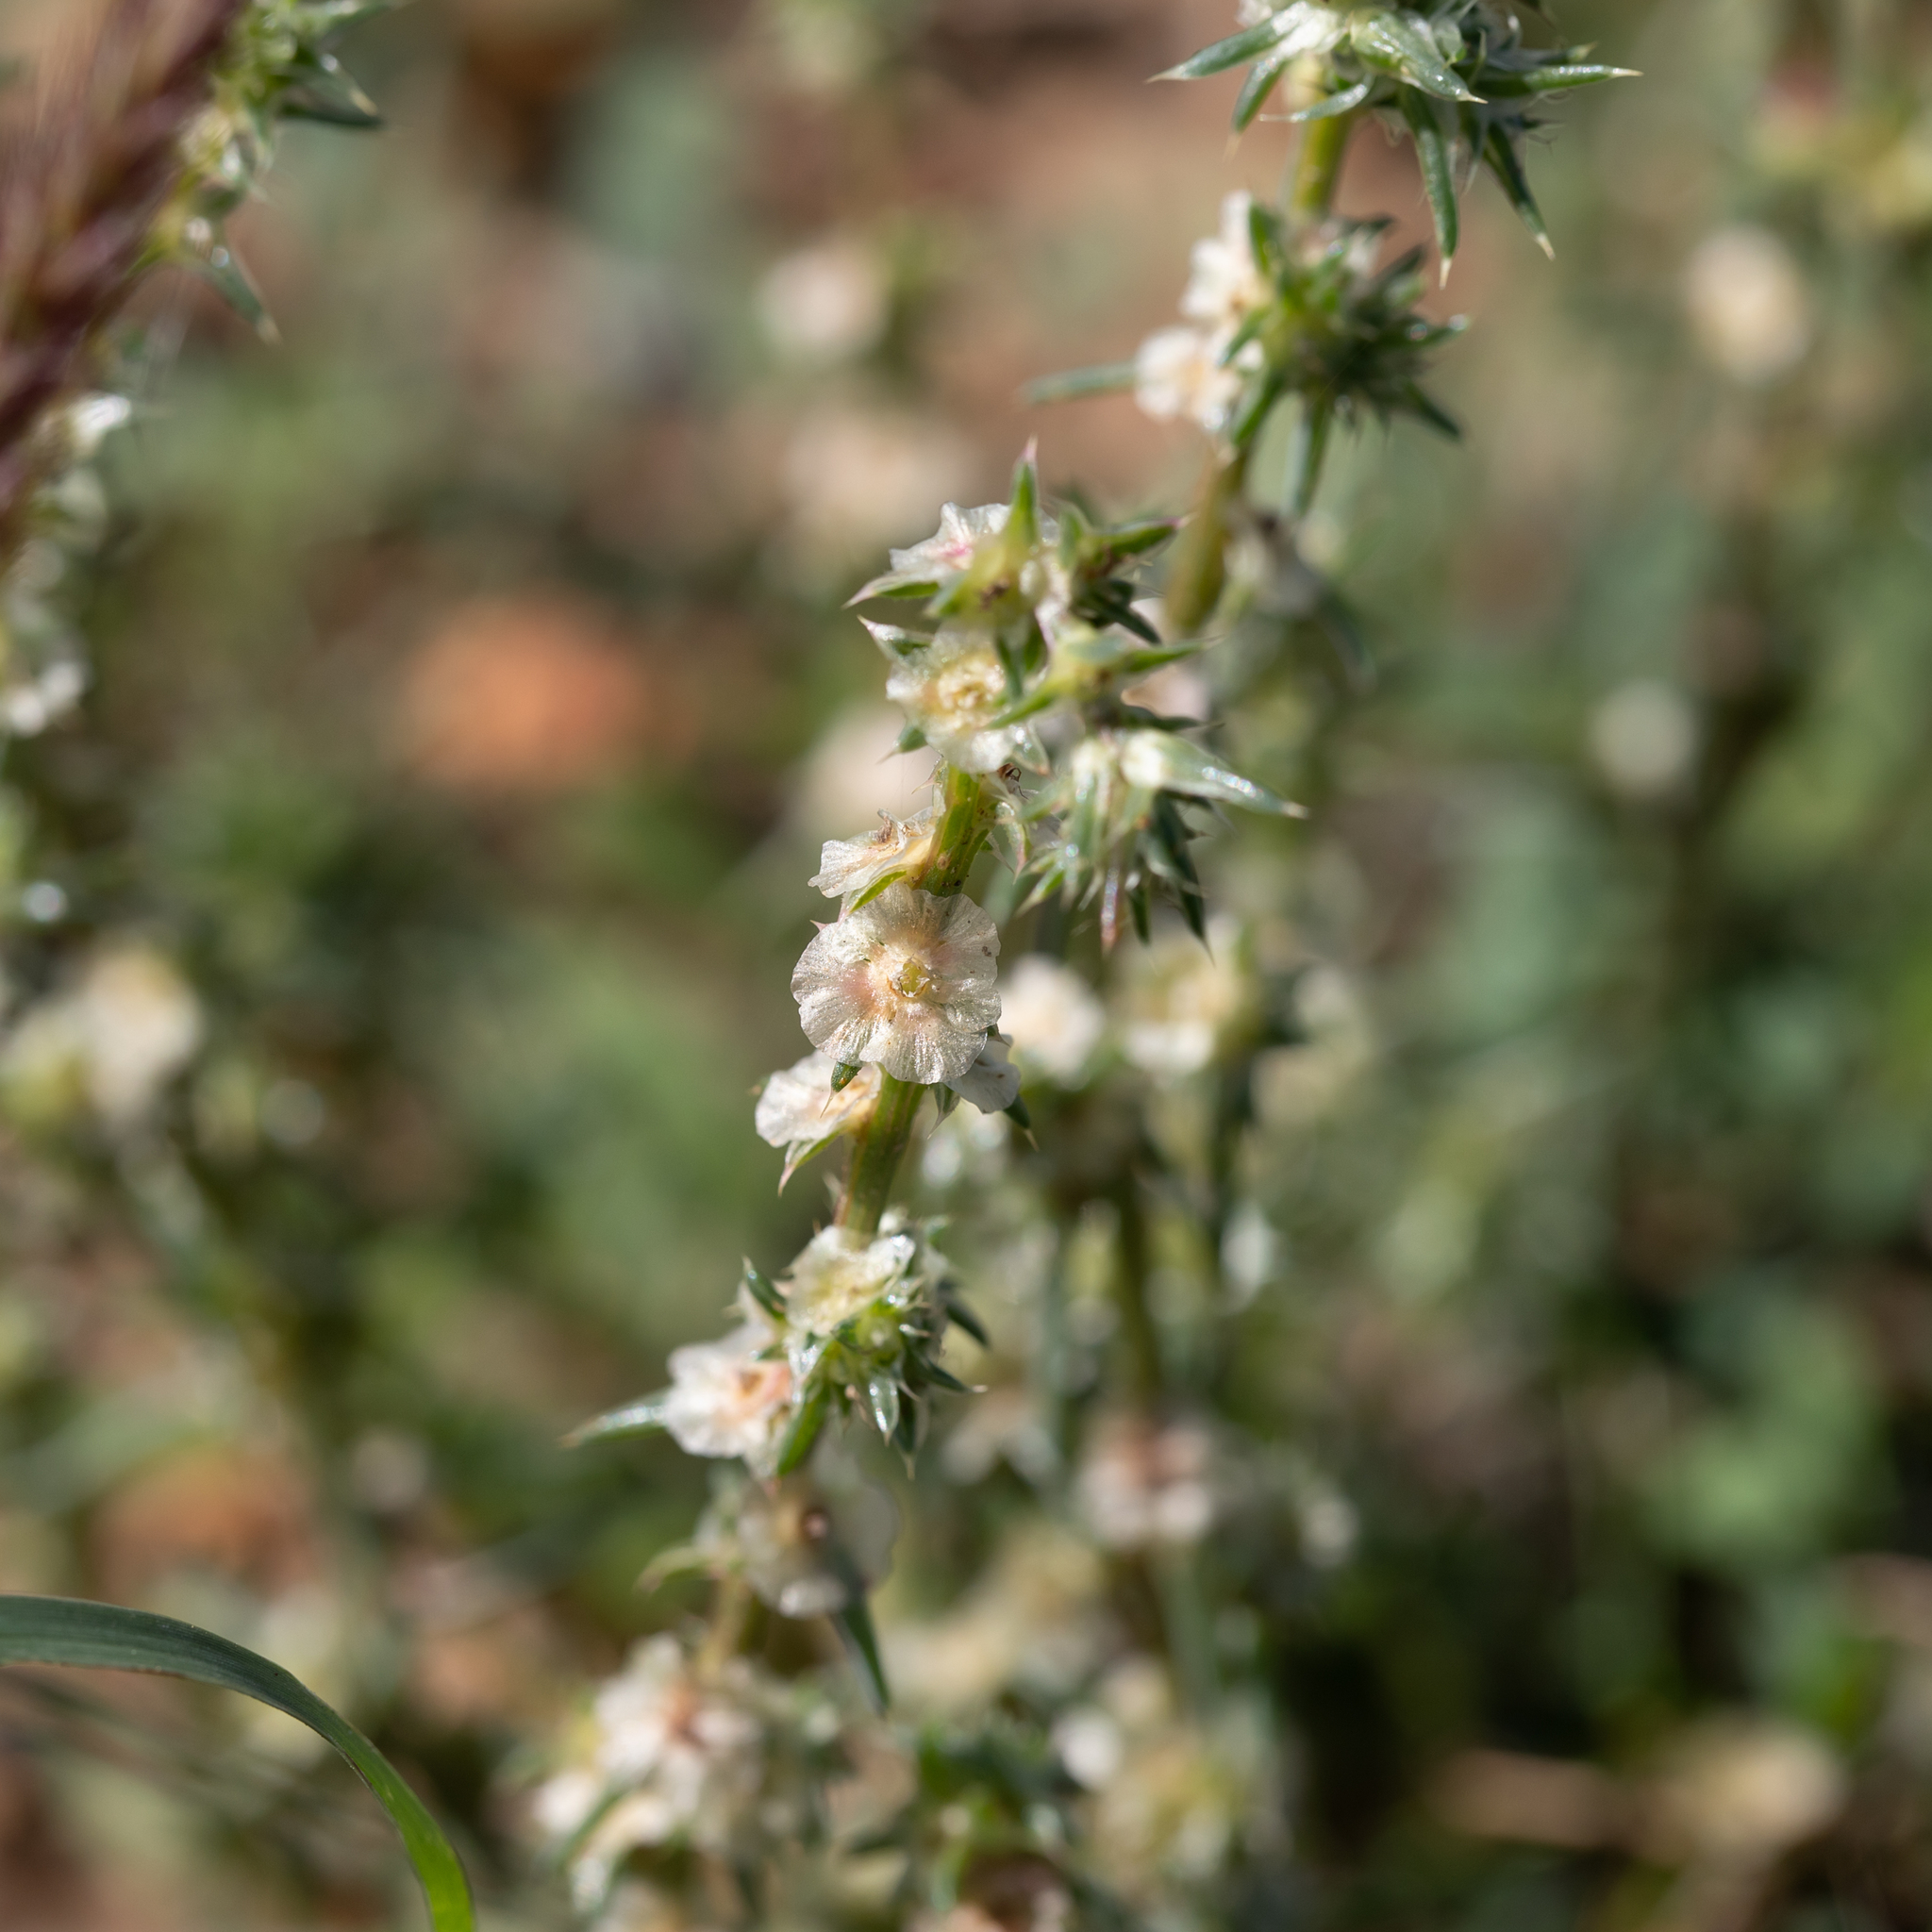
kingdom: Plantae
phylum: Tracheophyta
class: Magnoliopsida
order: Caryophyllales
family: Amaranthaceae
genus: Salsola
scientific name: Salsola australis
